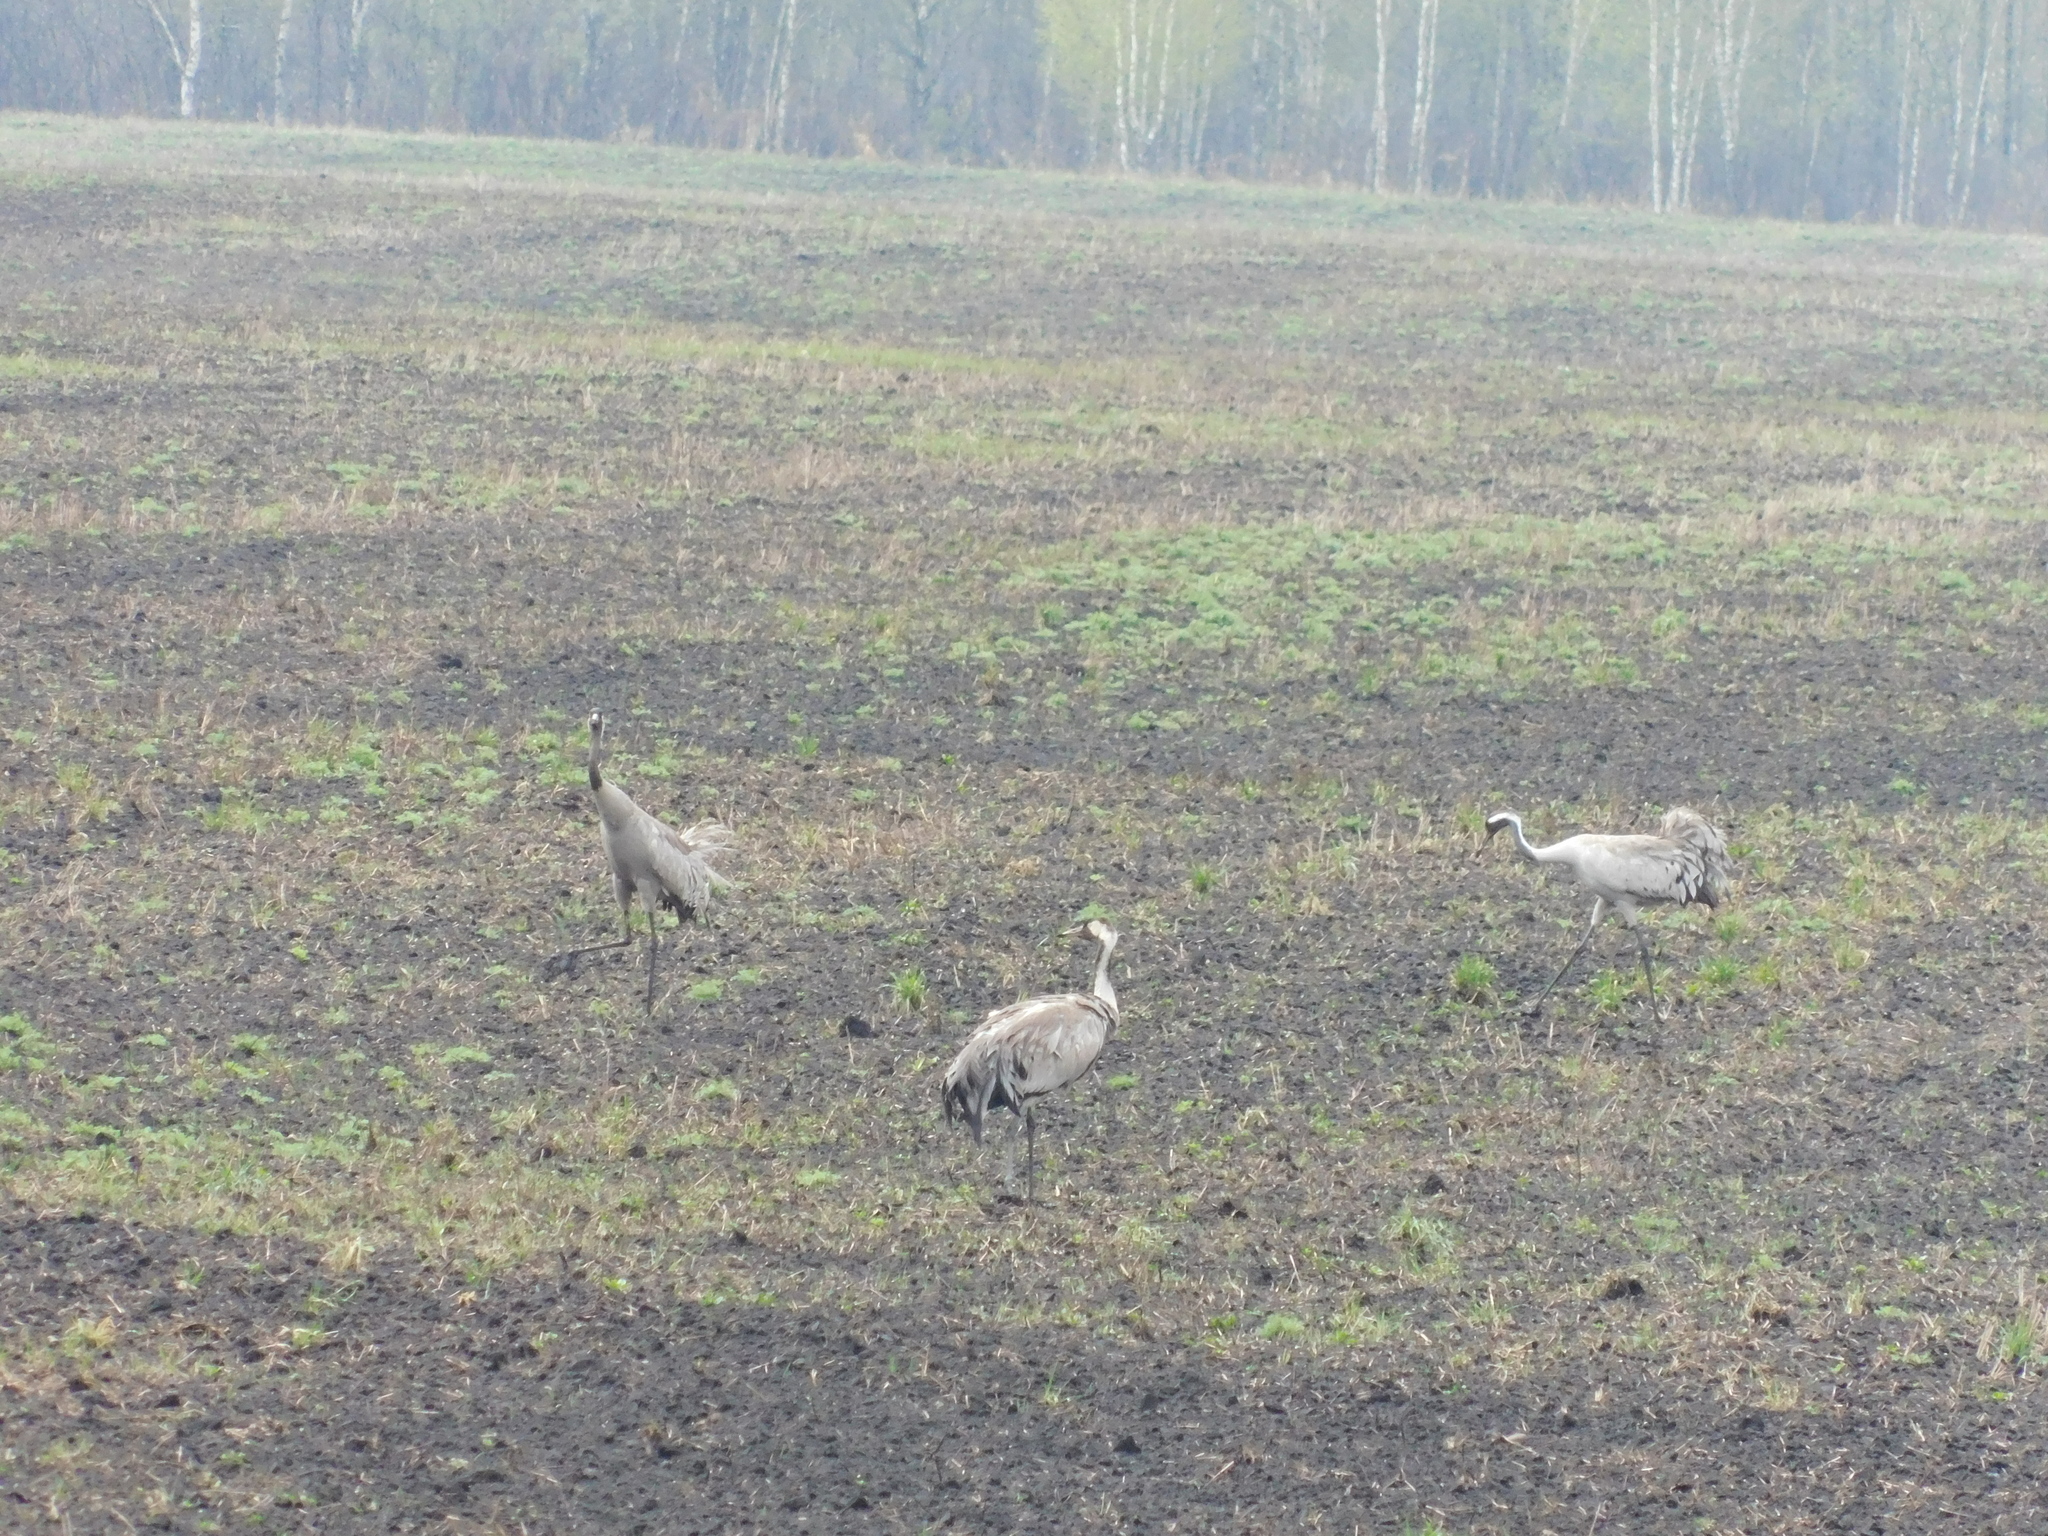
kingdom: Animalia
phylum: Chordata
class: Aves
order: Gruiformes
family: Gruidae
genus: Grus
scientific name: Grus grus
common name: Common crane
